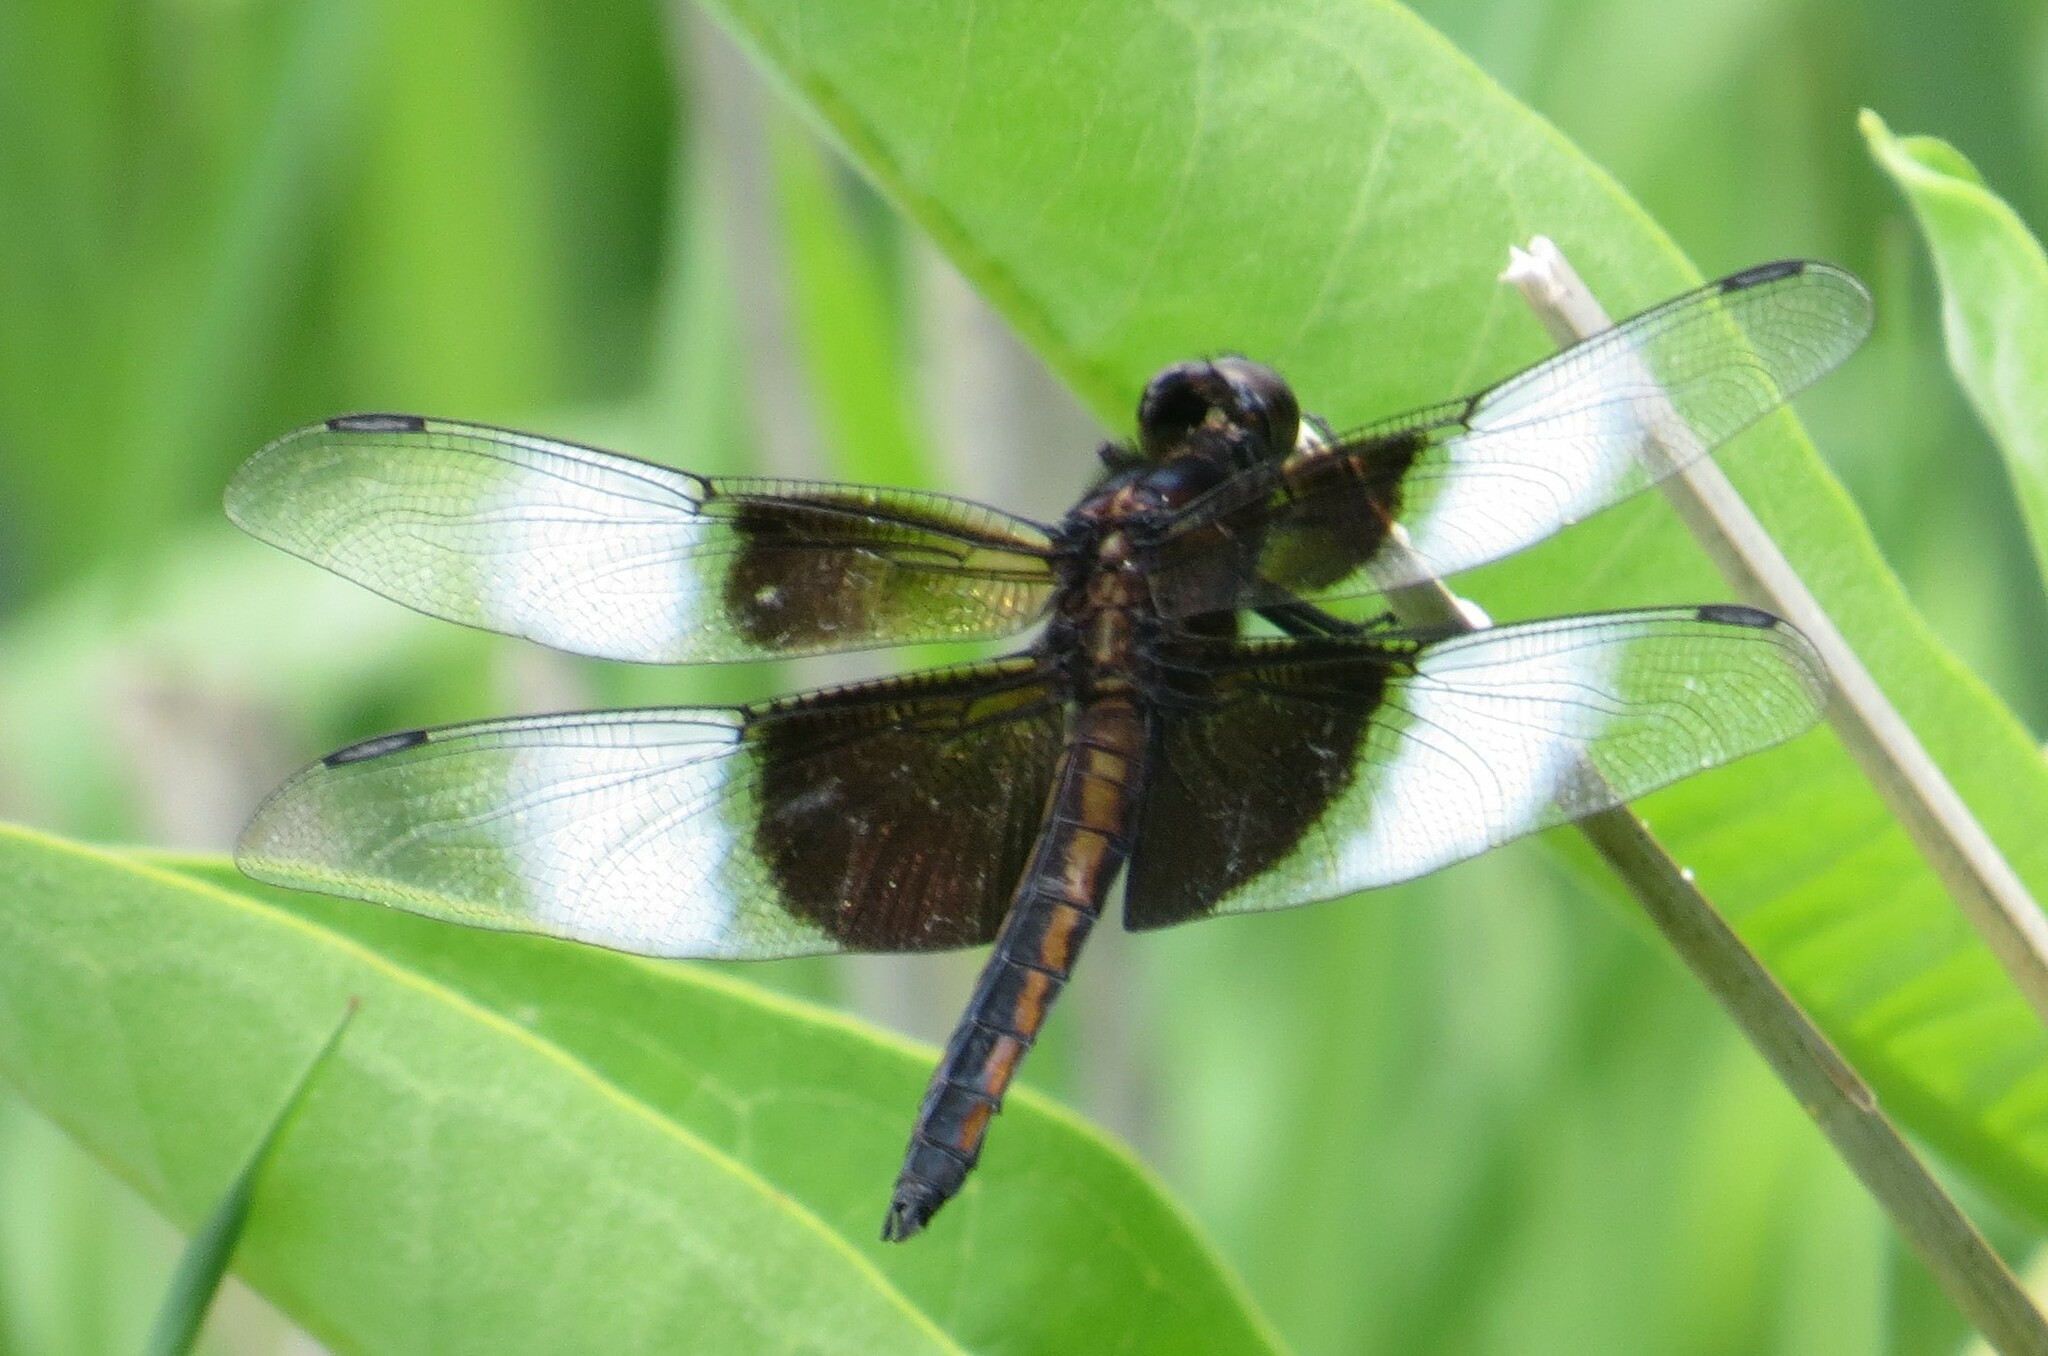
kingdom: Animalia
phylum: Arthropoda
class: Insecta
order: Odonata
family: Libellulidae
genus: Libellula
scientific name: Libellula luctuosa
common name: Widow skimmer
